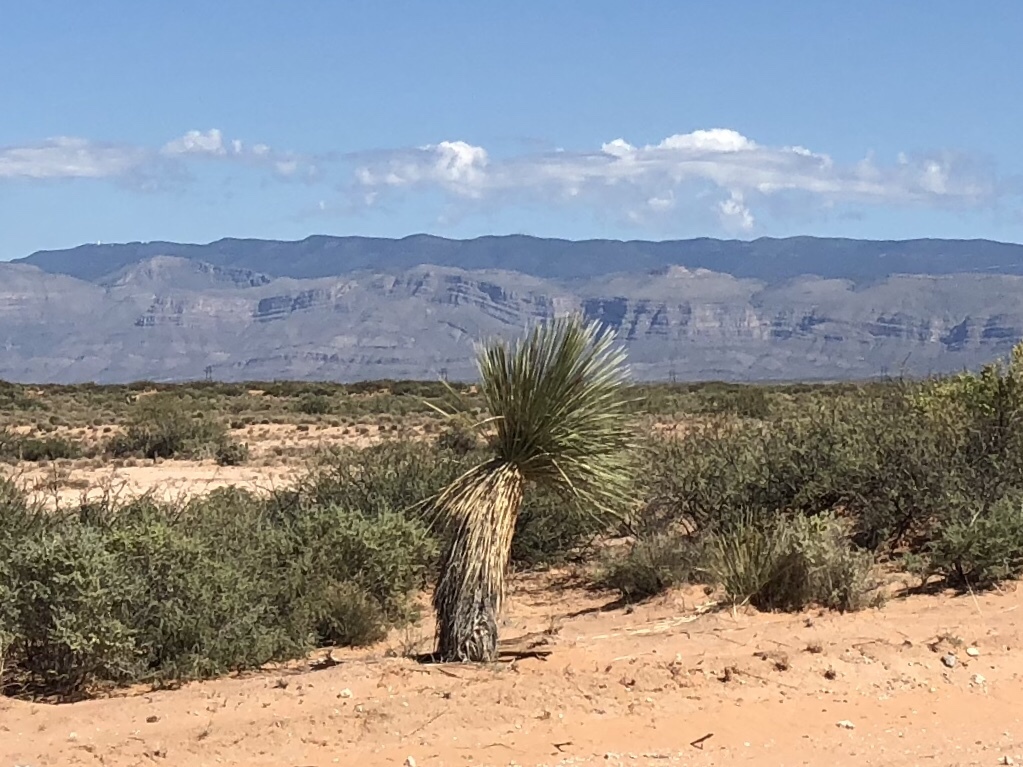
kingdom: Plantae
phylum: Tracheophyta
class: Liliopsida
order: Asparagales
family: Asparagaceae
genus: Yucca
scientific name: Yucca elata
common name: Palmella
